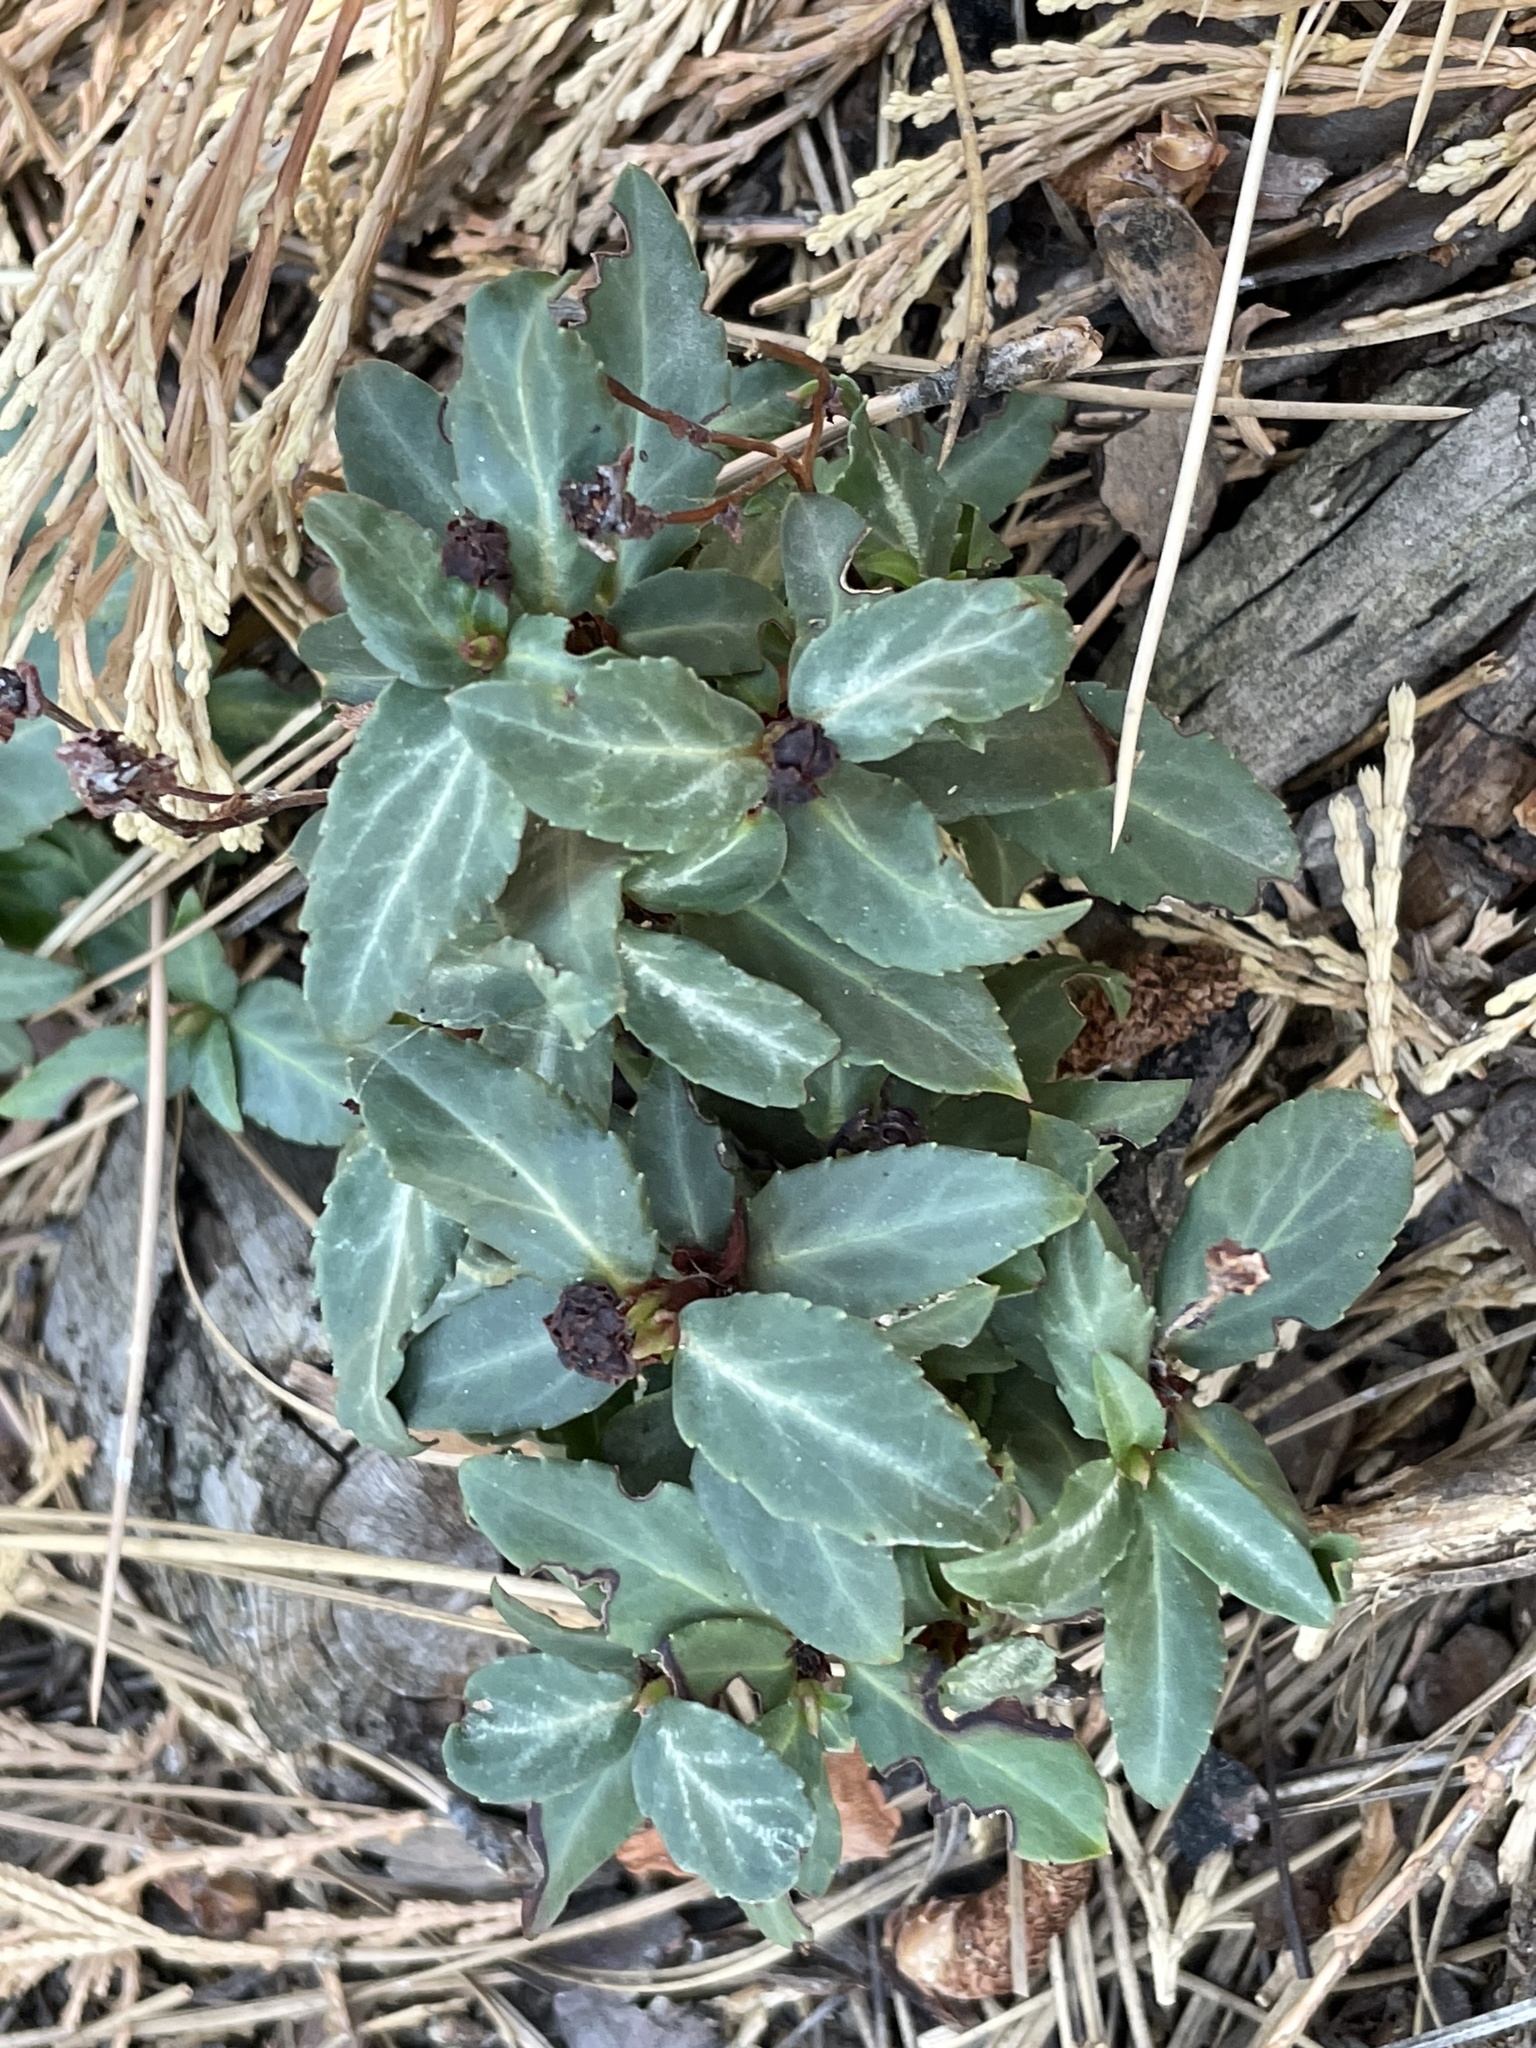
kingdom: Plantae
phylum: Tracheophyta
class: Magnoliopsida
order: Ericales
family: Ericaceae
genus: Chimaphila
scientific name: Chimaphila menziesii
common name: Menzies' pipsissewa
